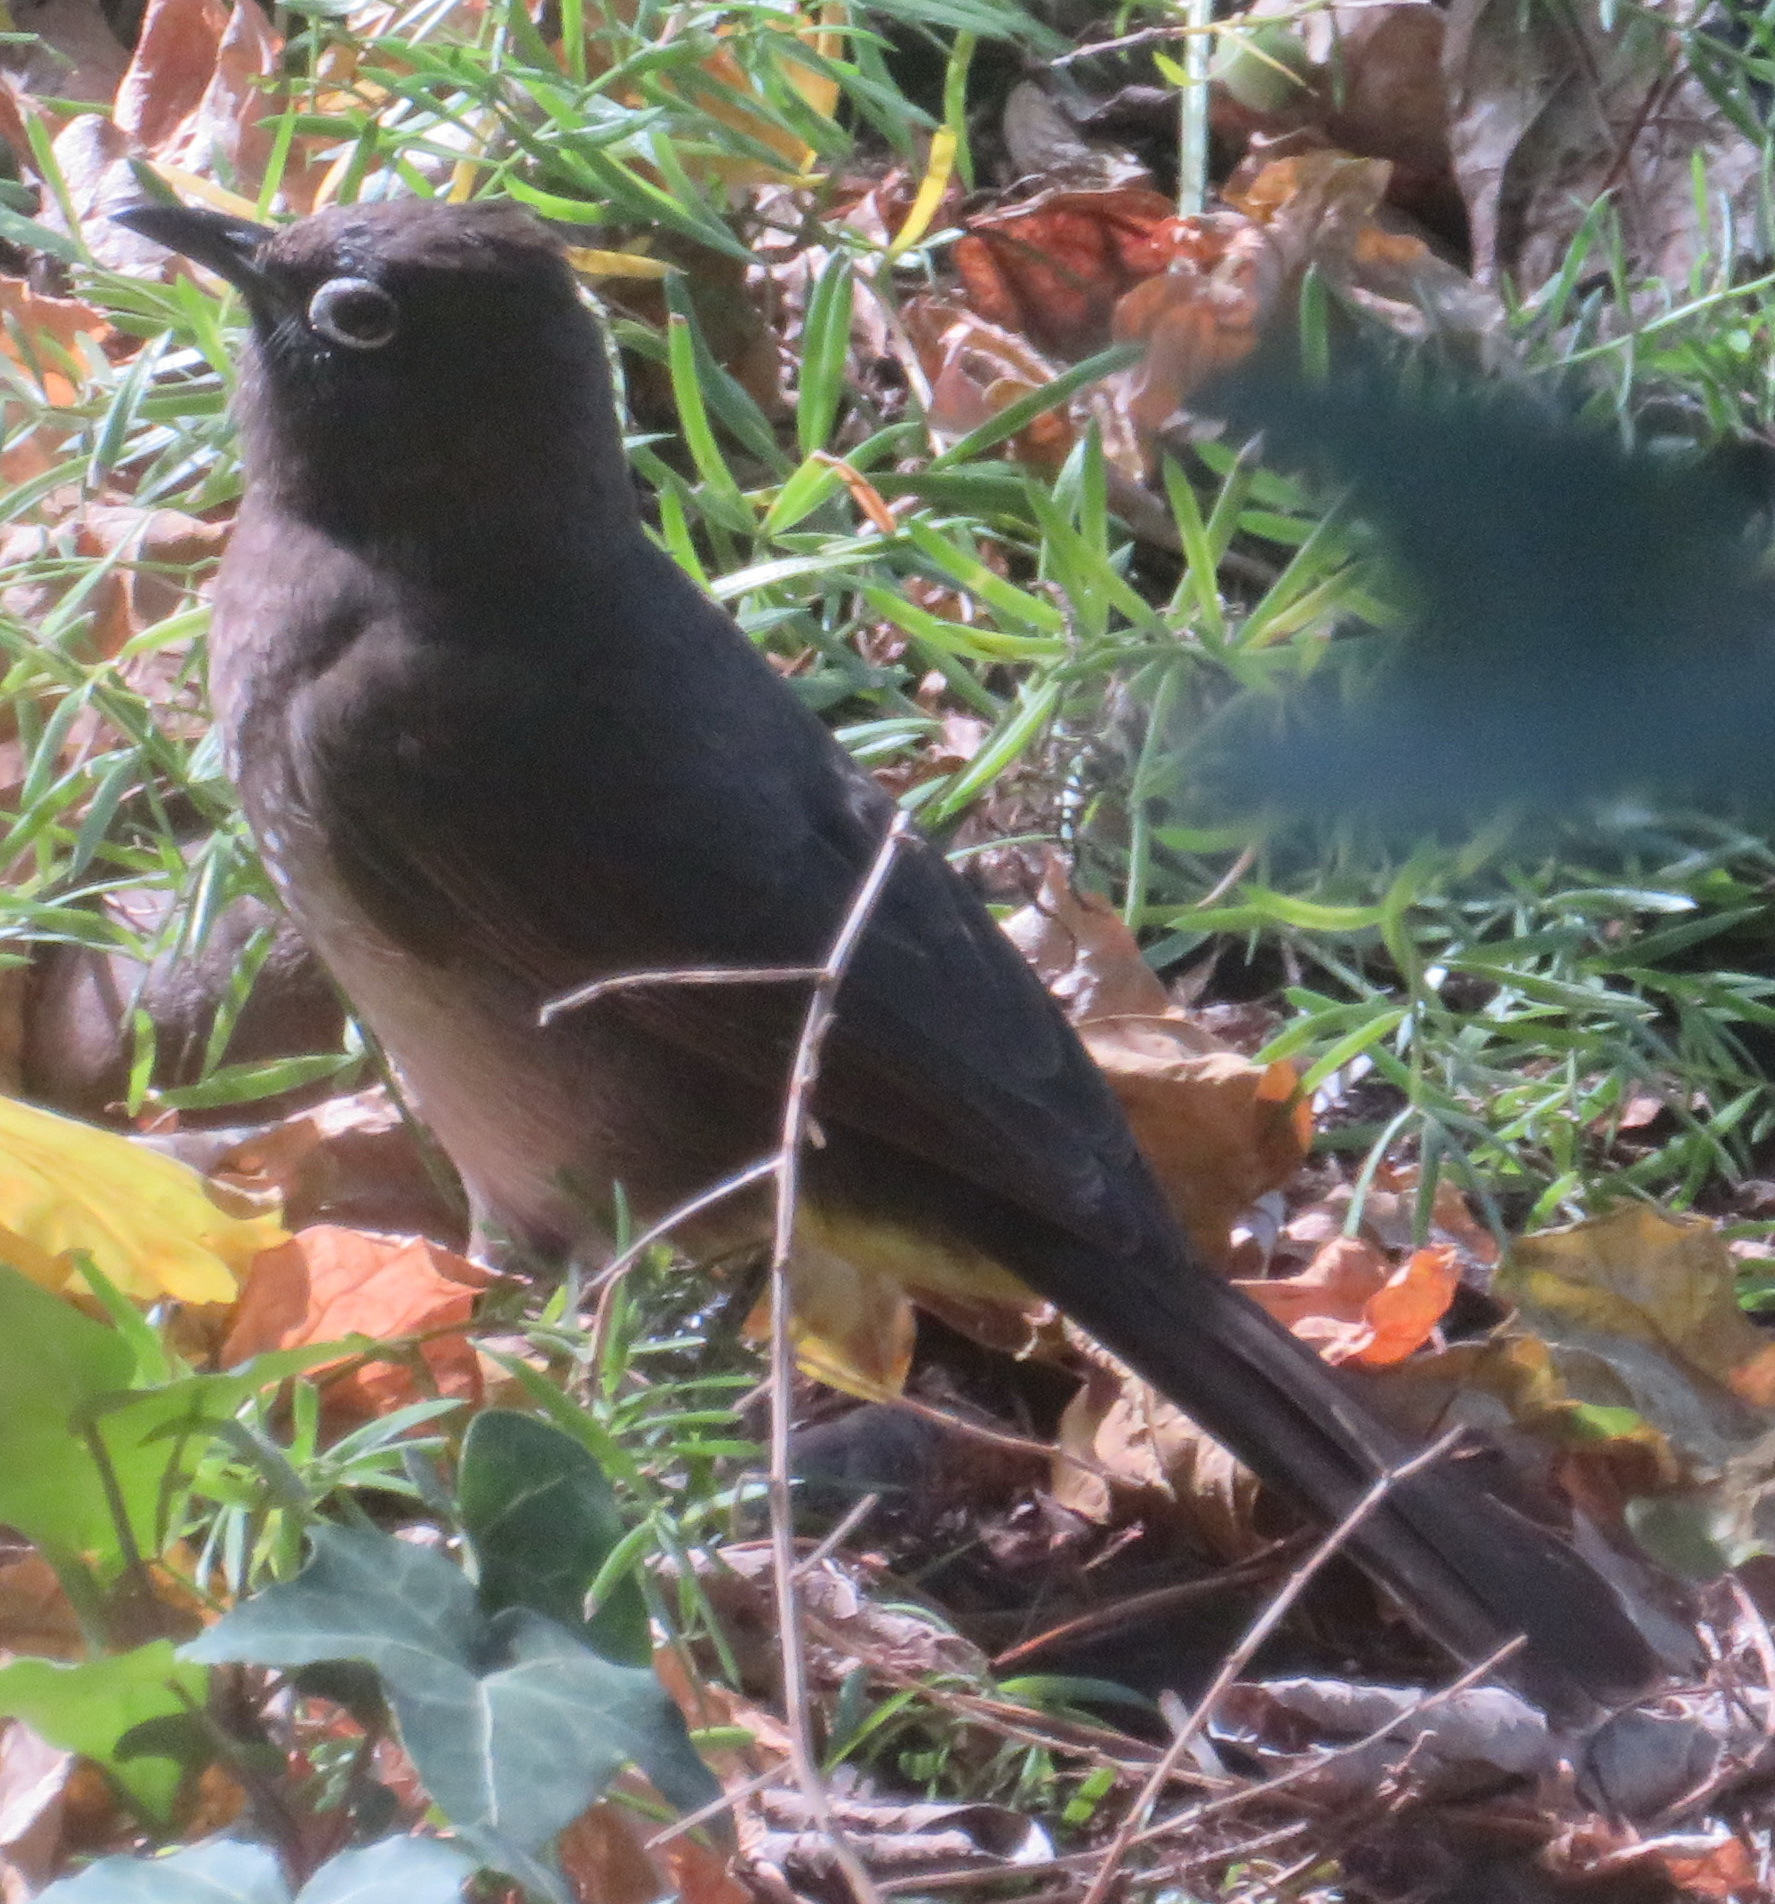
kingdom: Animalia
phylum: Chordata
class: Aves
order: Passeriformes
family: Pycnonotidae
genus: Pycnonotus
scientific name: Pycnonotus capensis
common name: Cape bulbul
